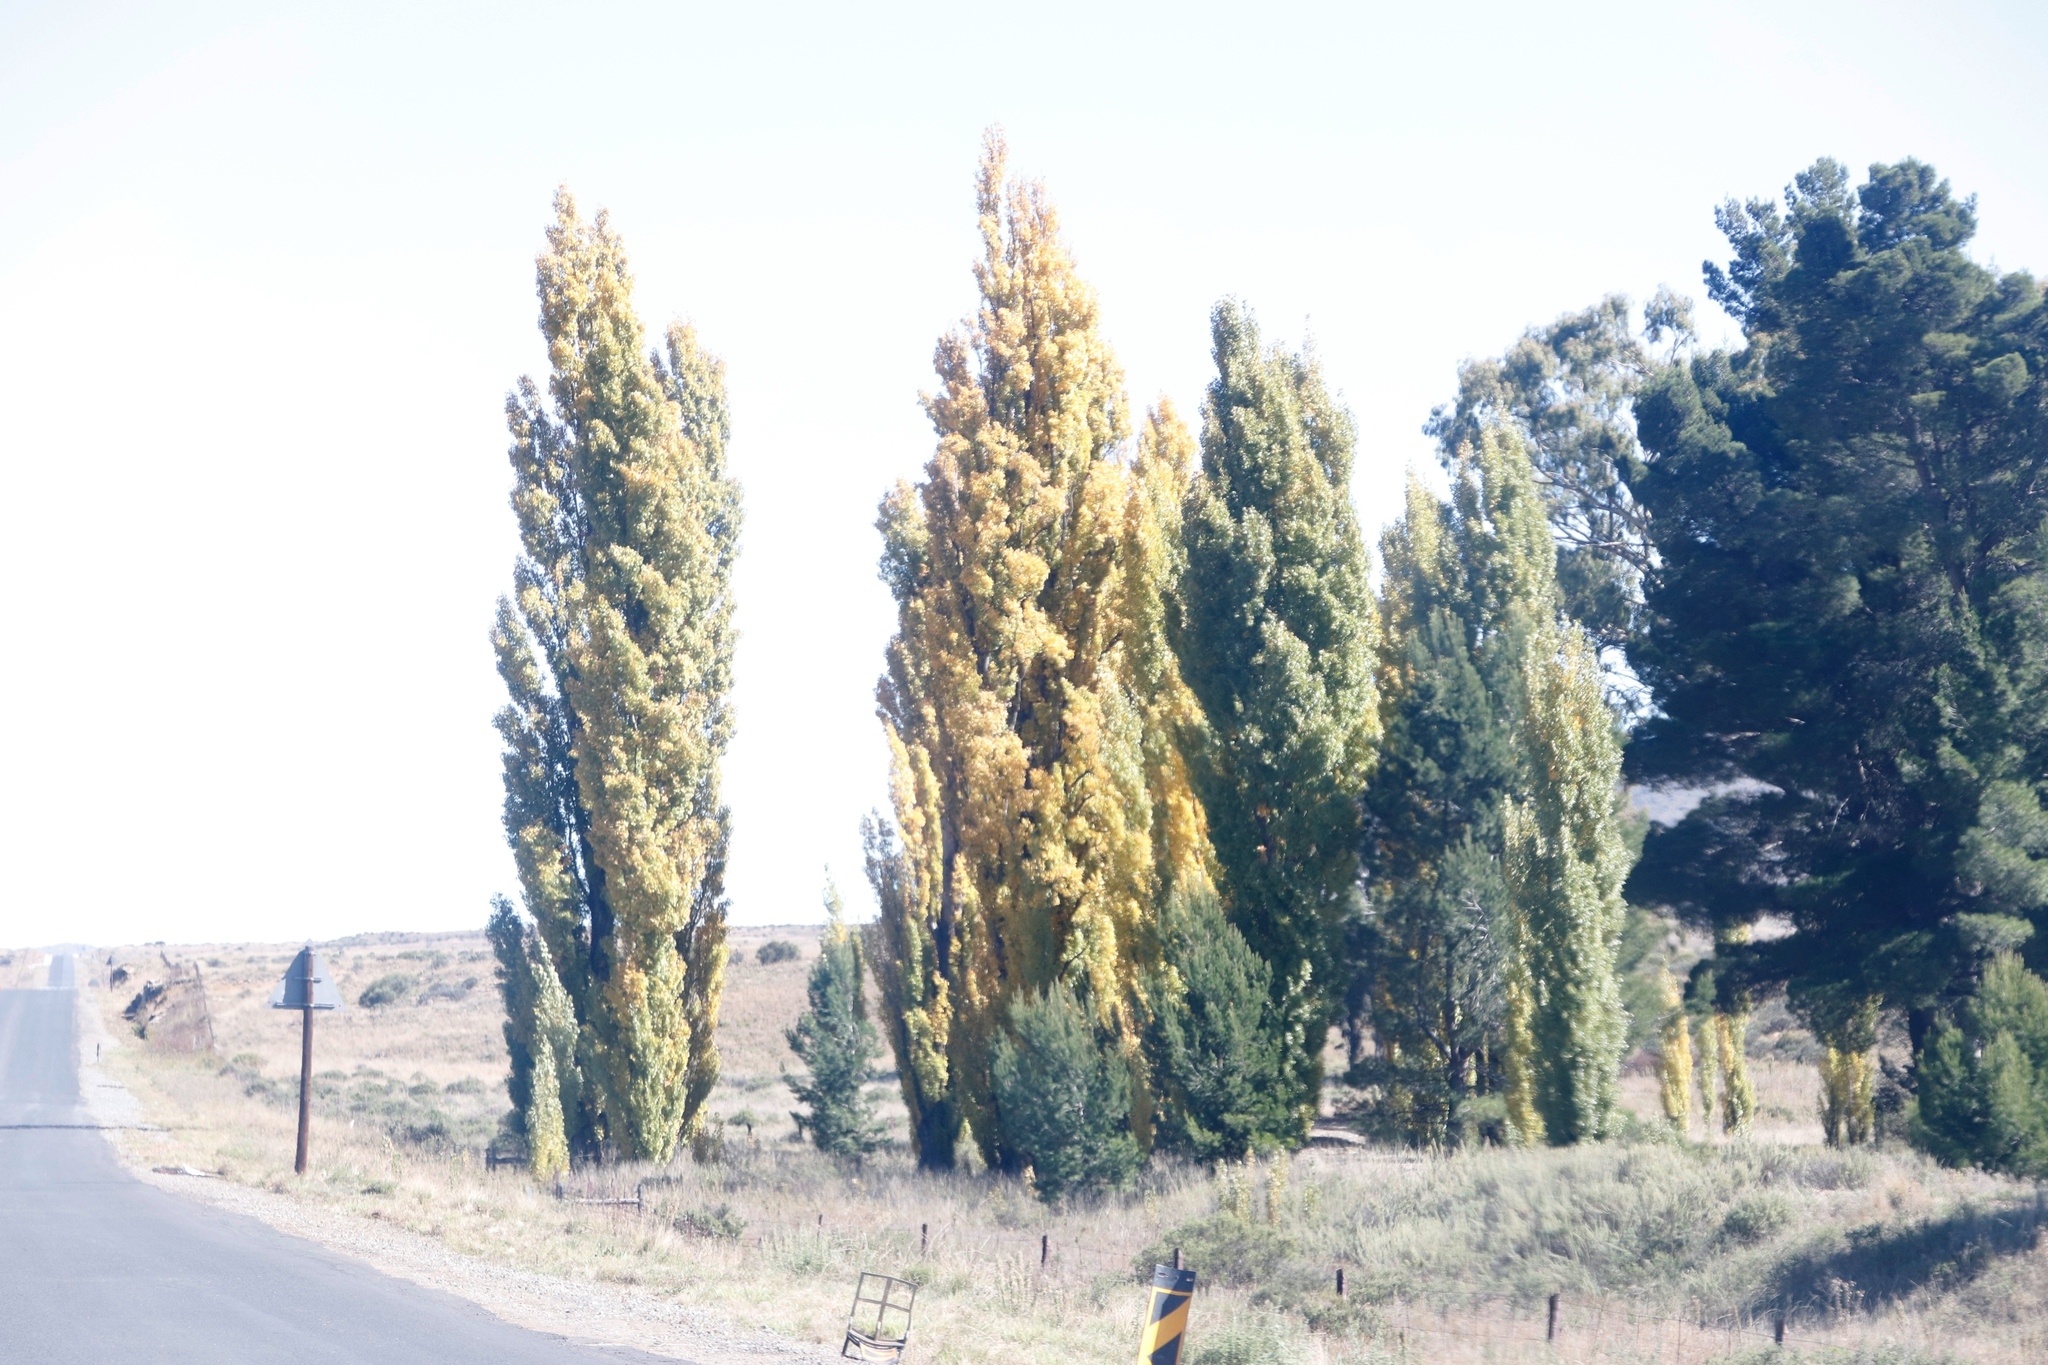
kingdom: Plantae
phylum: Tracheophyta
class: Magnoliopsida
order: Malpighiales
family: Salicaceae
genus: Populus
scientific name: Populus nigra
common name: Black poplar
